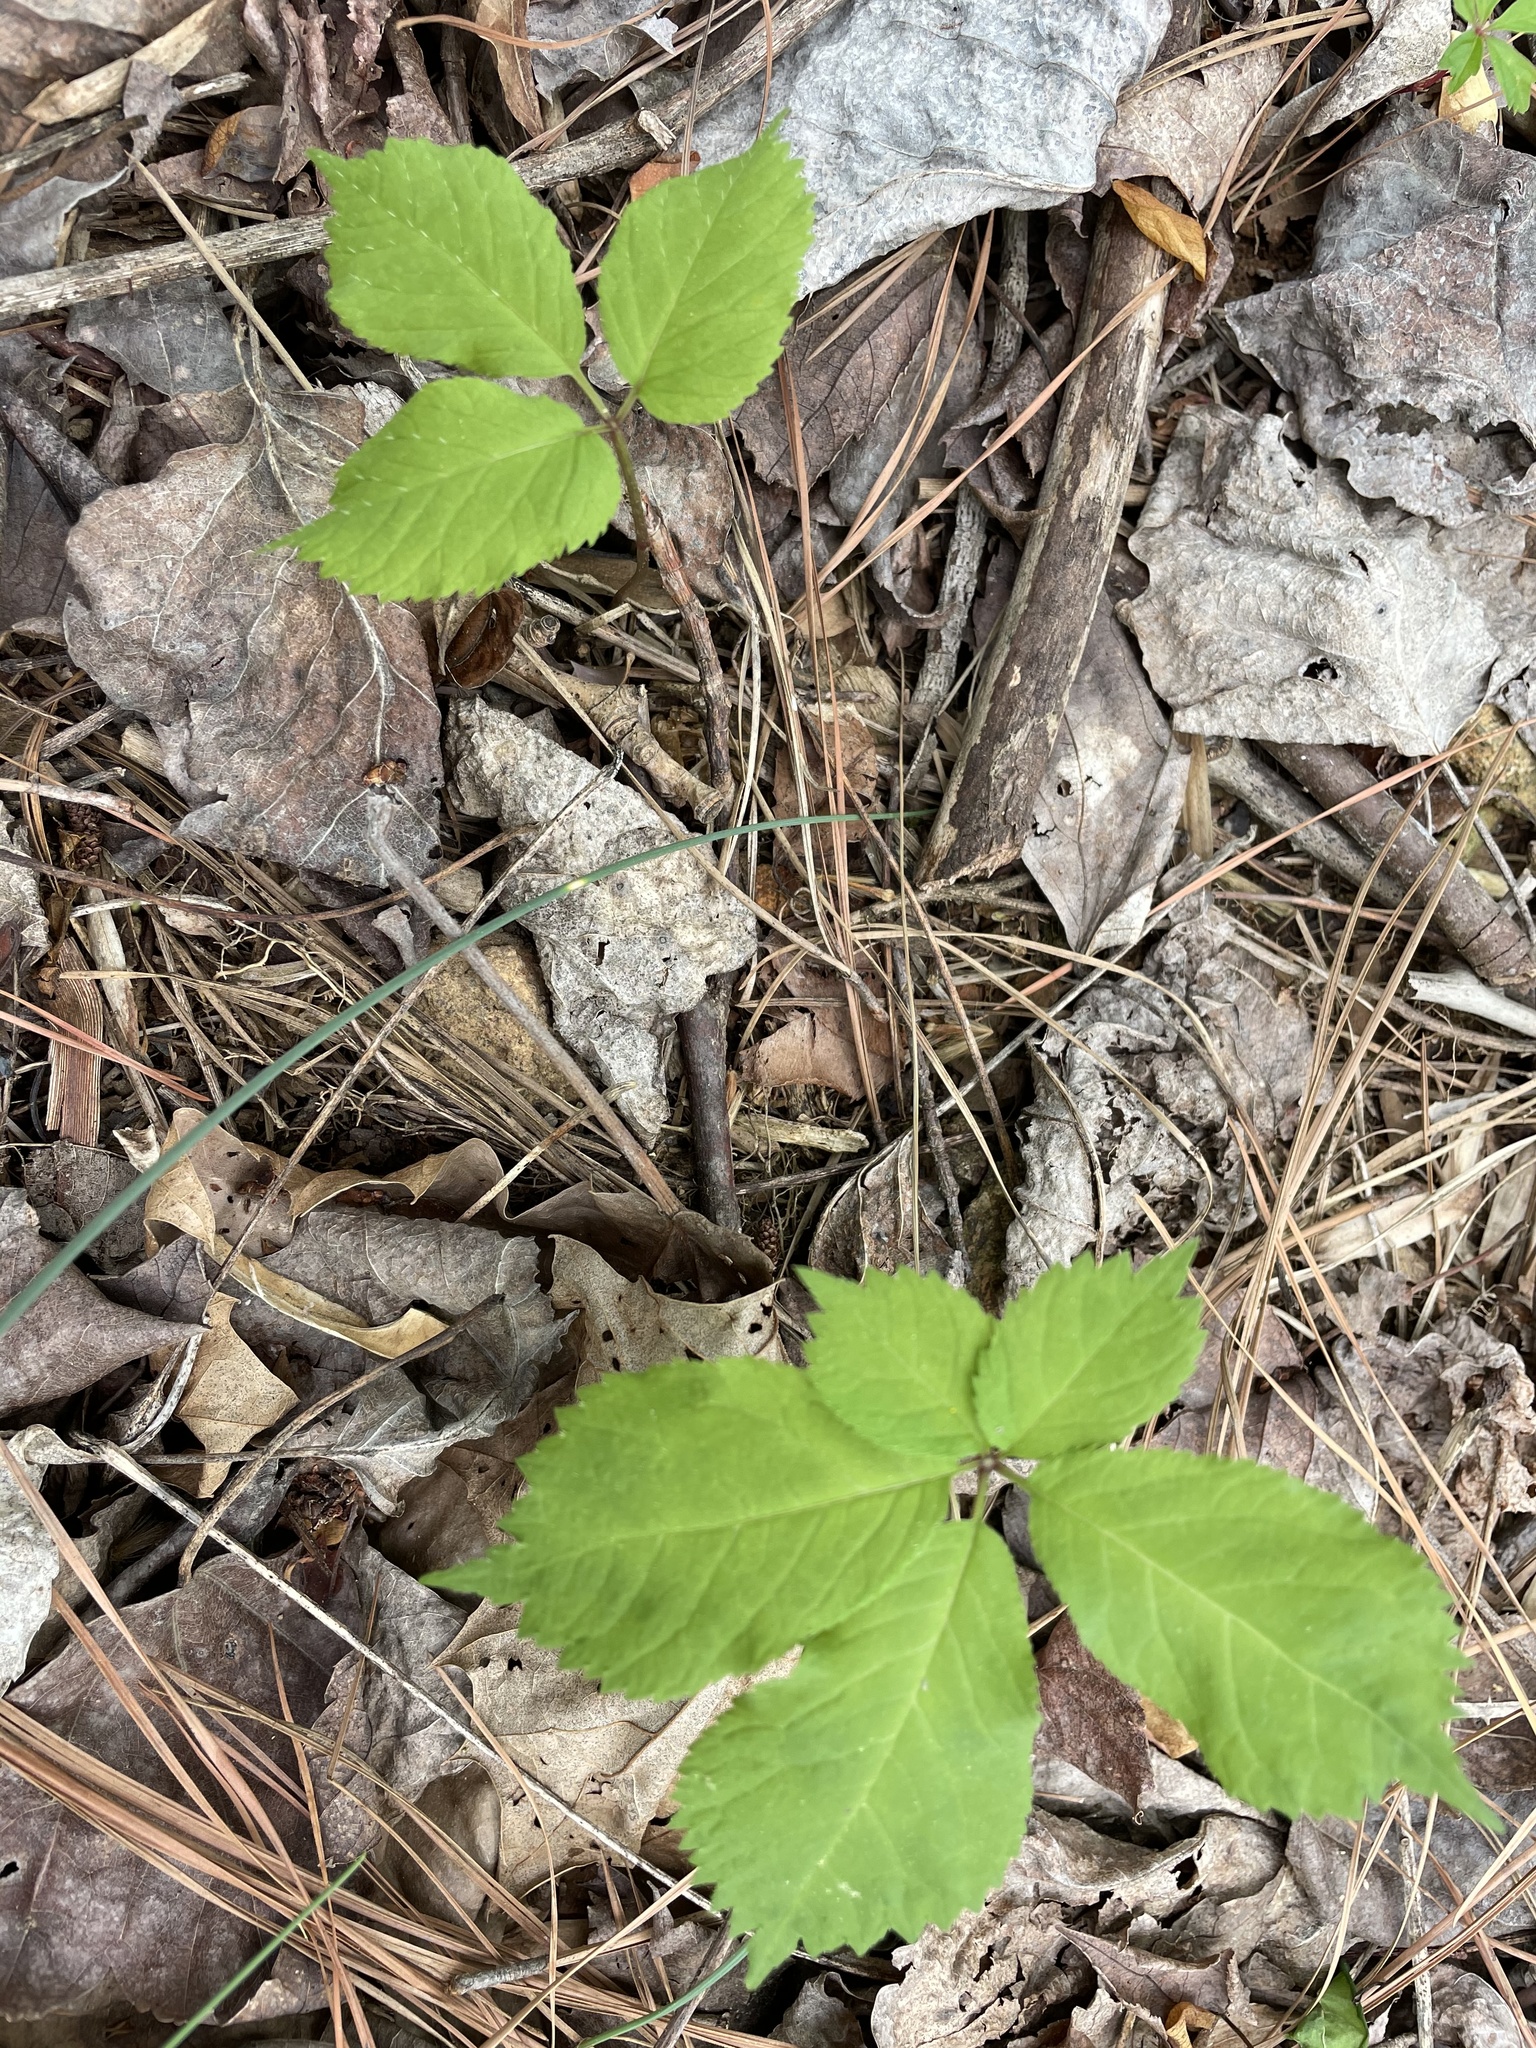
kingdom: Plantae
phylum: Tracheophyta
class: Magnoliopsida
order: Apiales
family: Araliaceae
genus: Panax
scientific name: Panax quinquefolius
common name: American ginseng
